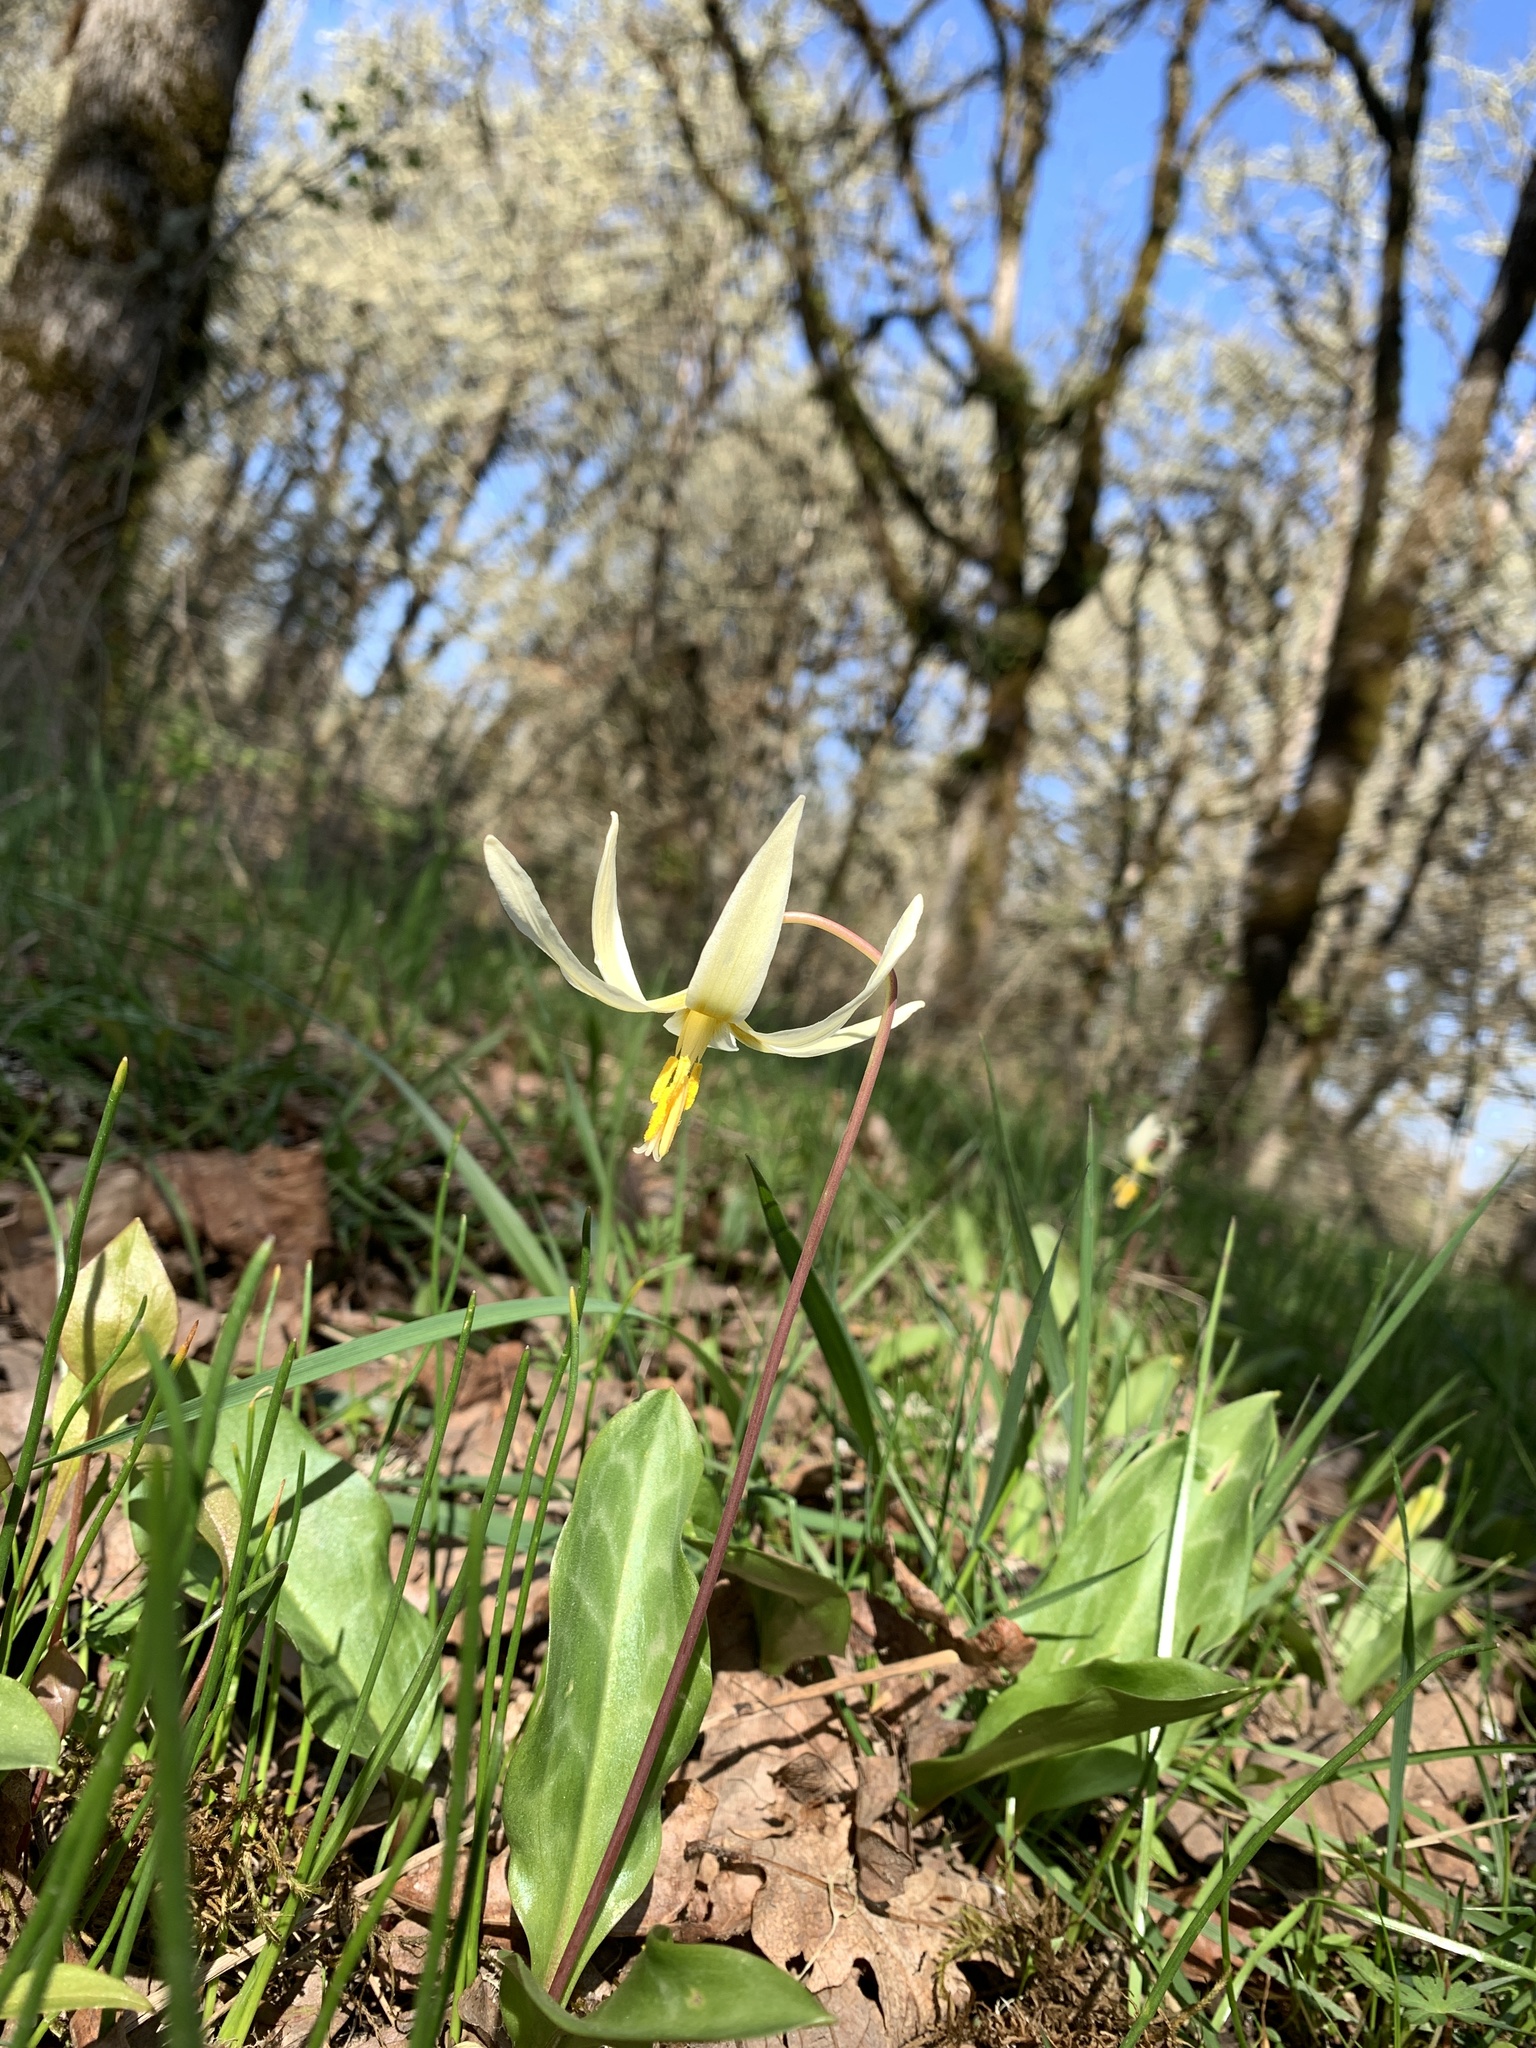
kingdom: Plantae
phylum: Tracheophyta
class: Liliopsida
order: Liliales
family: Liliaceae
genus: Erythronium
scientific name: Erythronium oregonum
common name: Giant adder's-tongue
